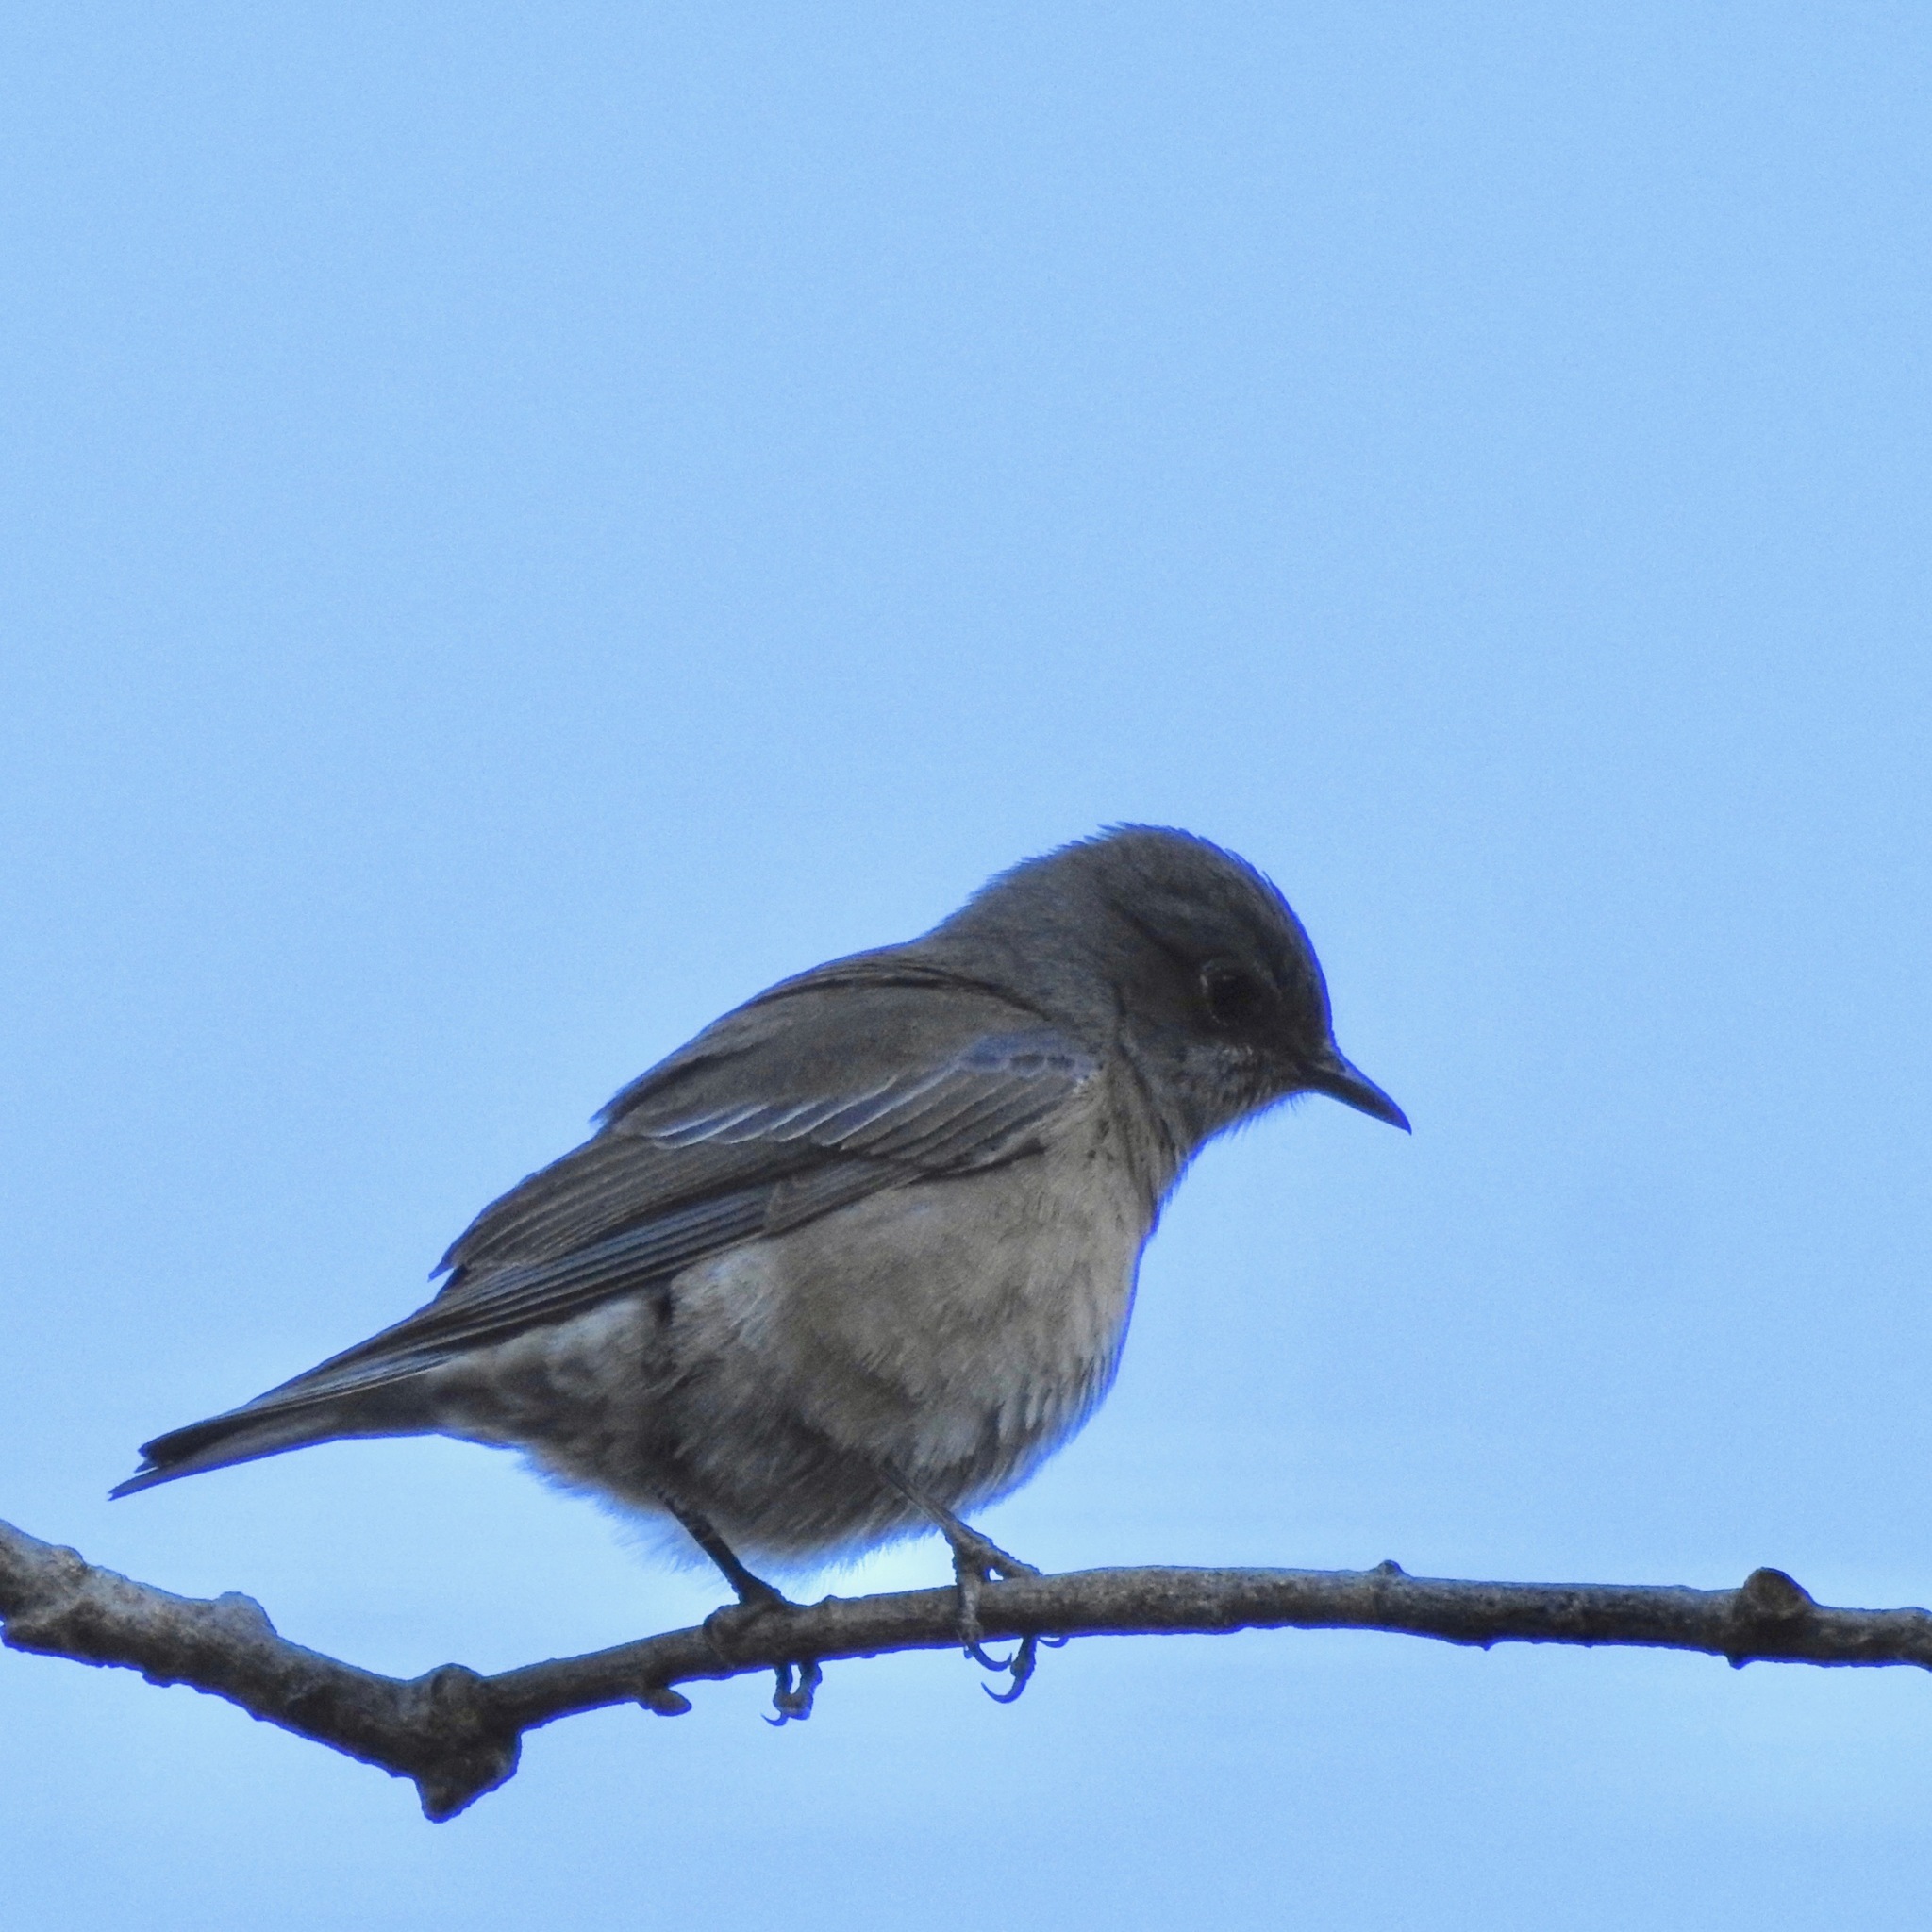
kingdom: Animalia
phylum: Chordata
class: Aves
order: Passeriformes
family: Turdidae
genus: Sialia
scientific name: Sialia mexicana
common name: Western bluebird
